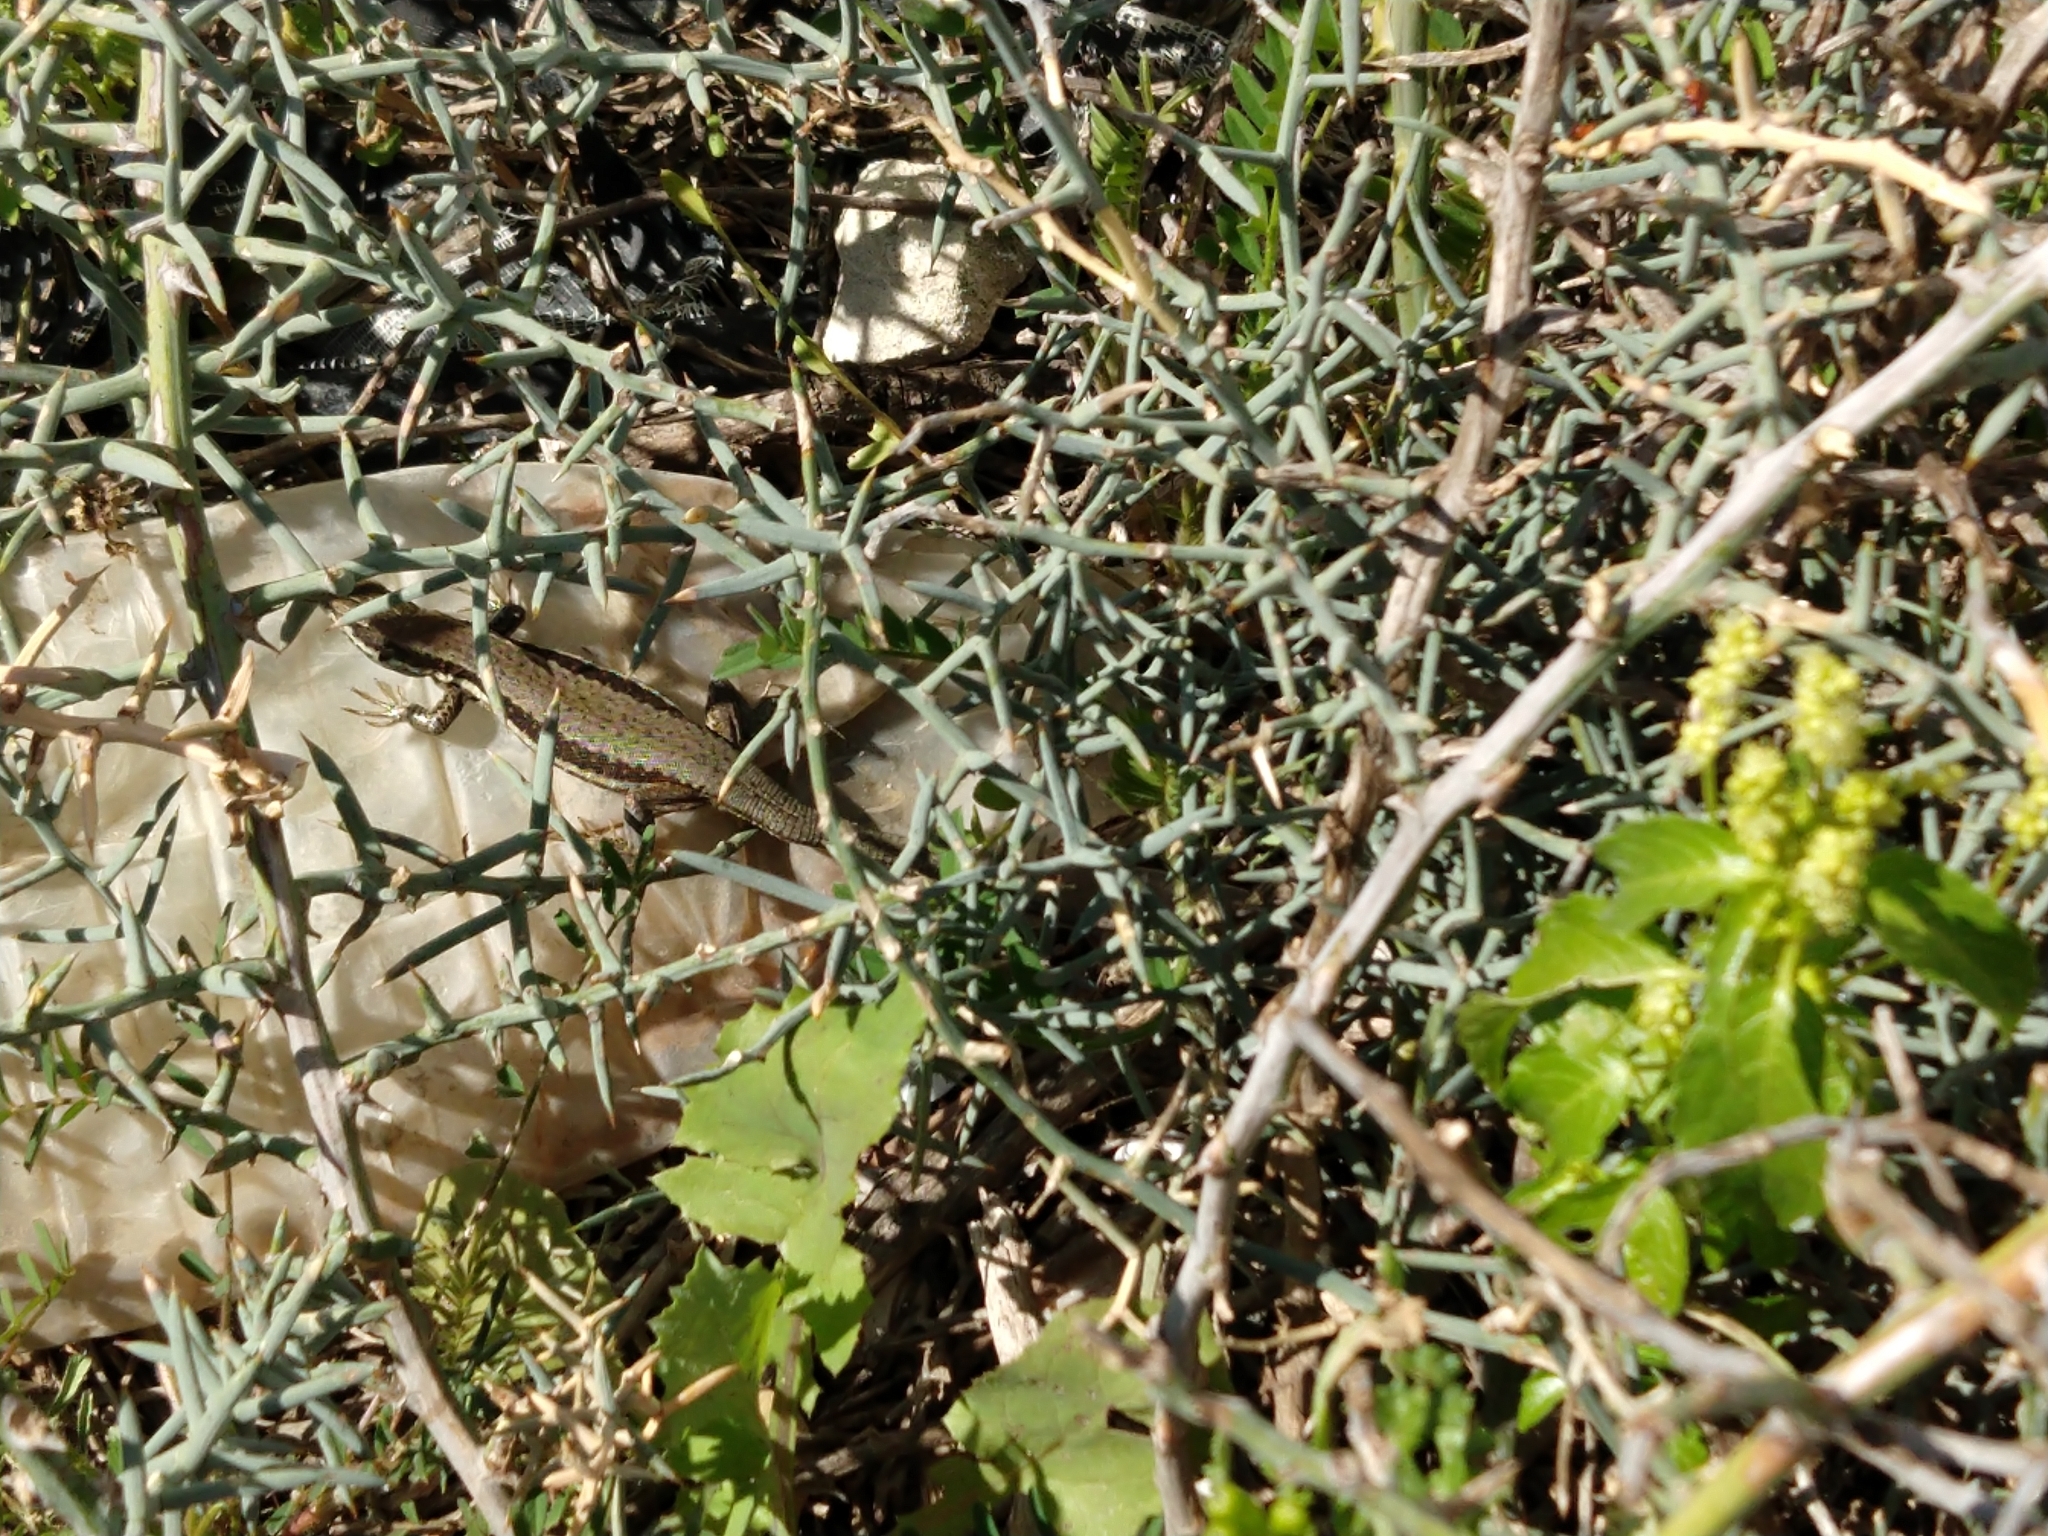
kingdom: Animalia
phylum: Chordata
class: Squamata
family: Lacertidae
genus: Phoenicolacerta
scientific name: Phoenicolacerta troodica
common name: Troodos wall lizard
